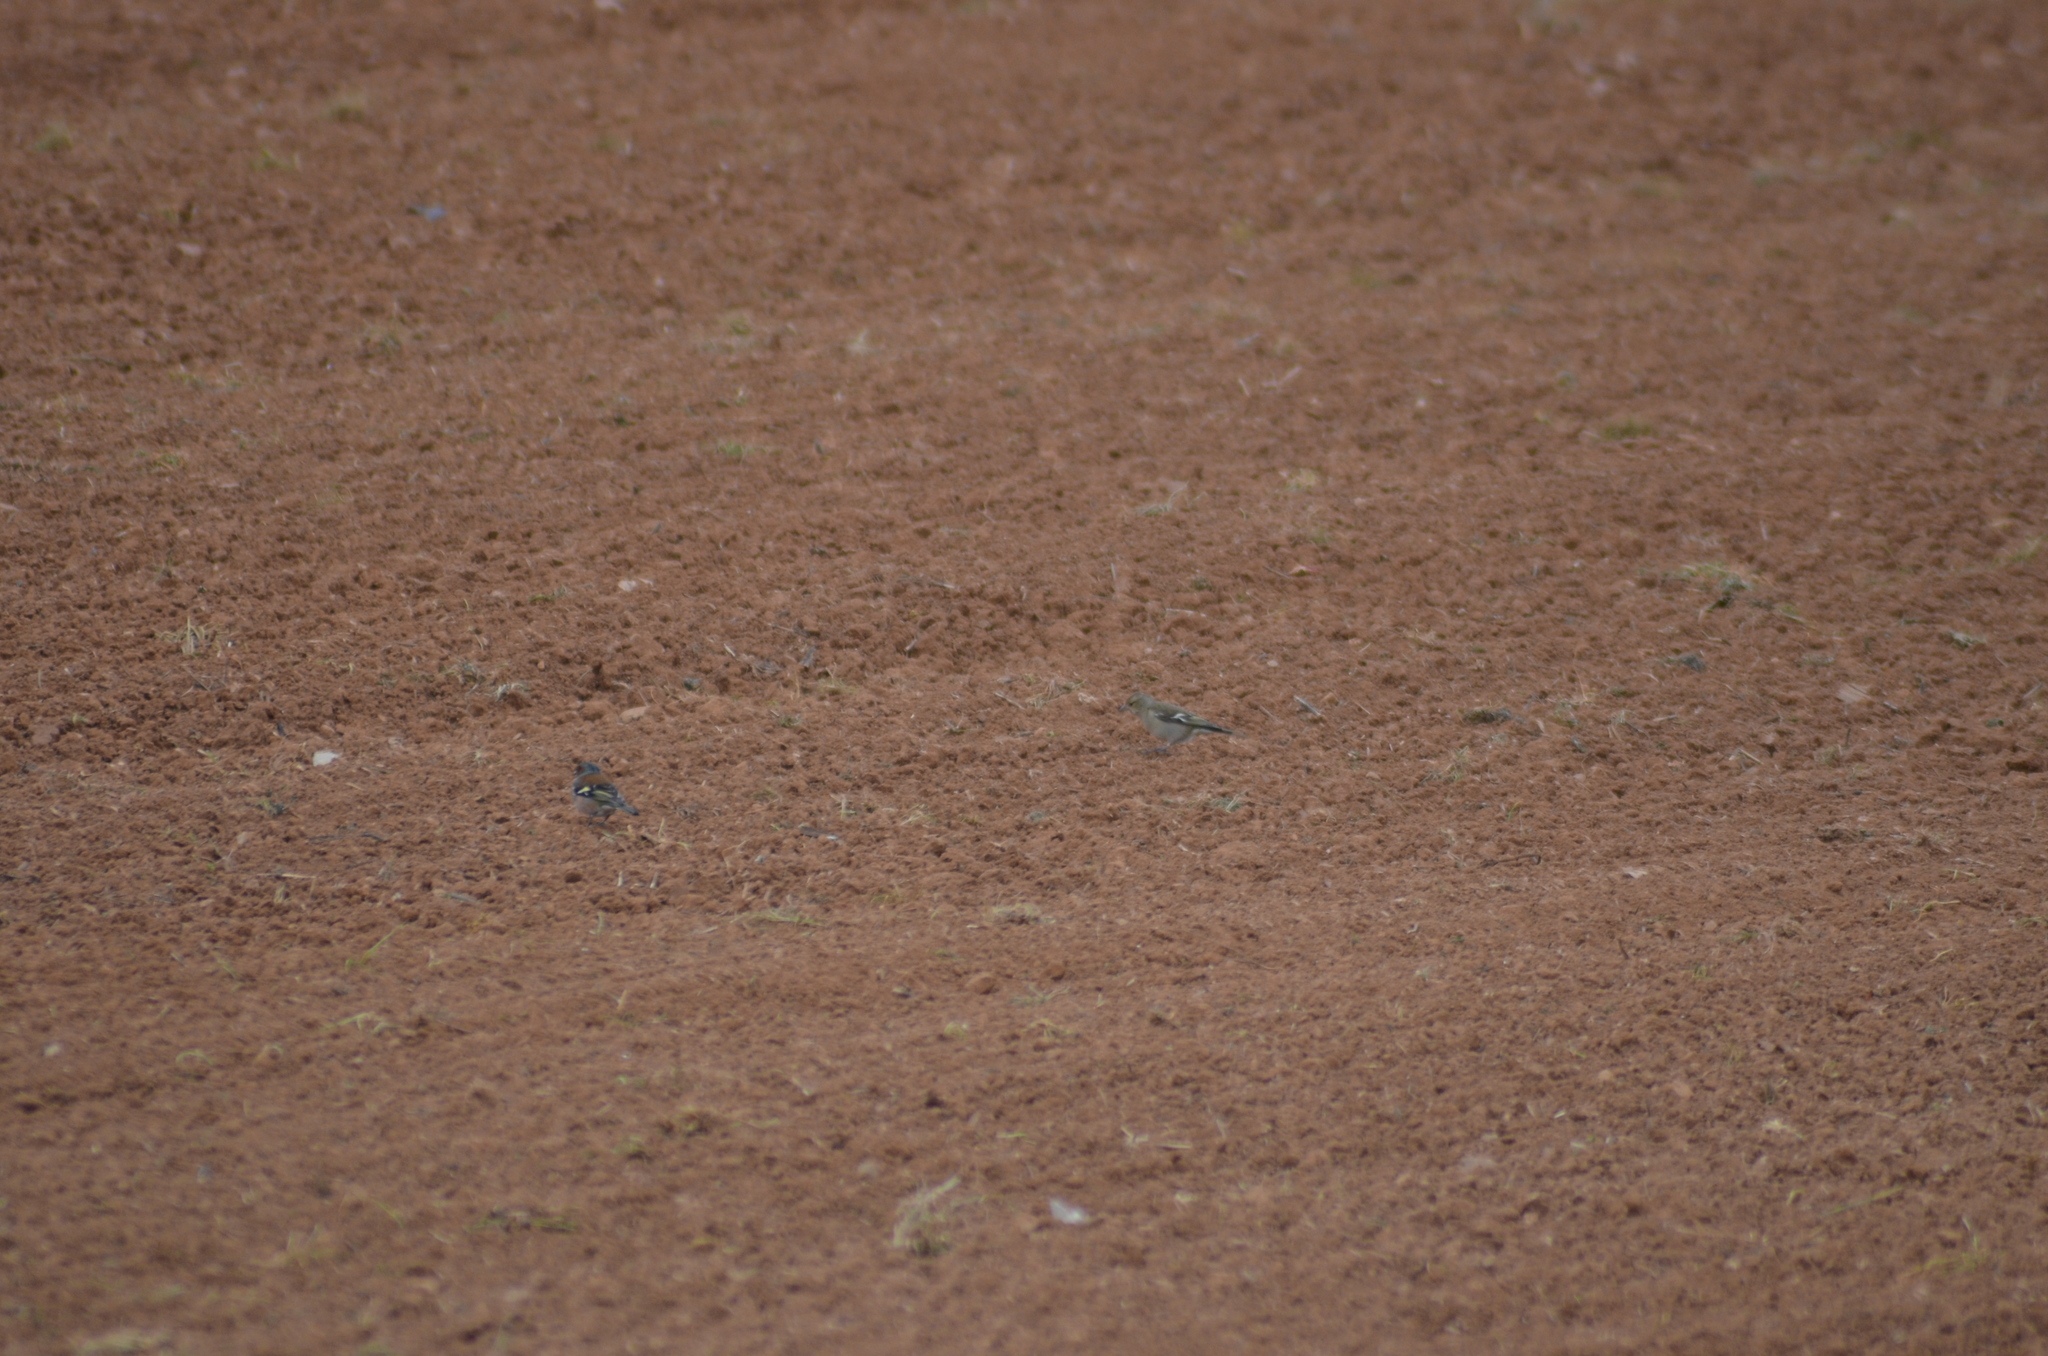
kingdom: Animalia
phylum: Chordata
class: Aves
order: Passeriformes
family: Fringillidae
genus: Fringilla
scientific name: Fringilla coelebs
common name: Common chaffinch
